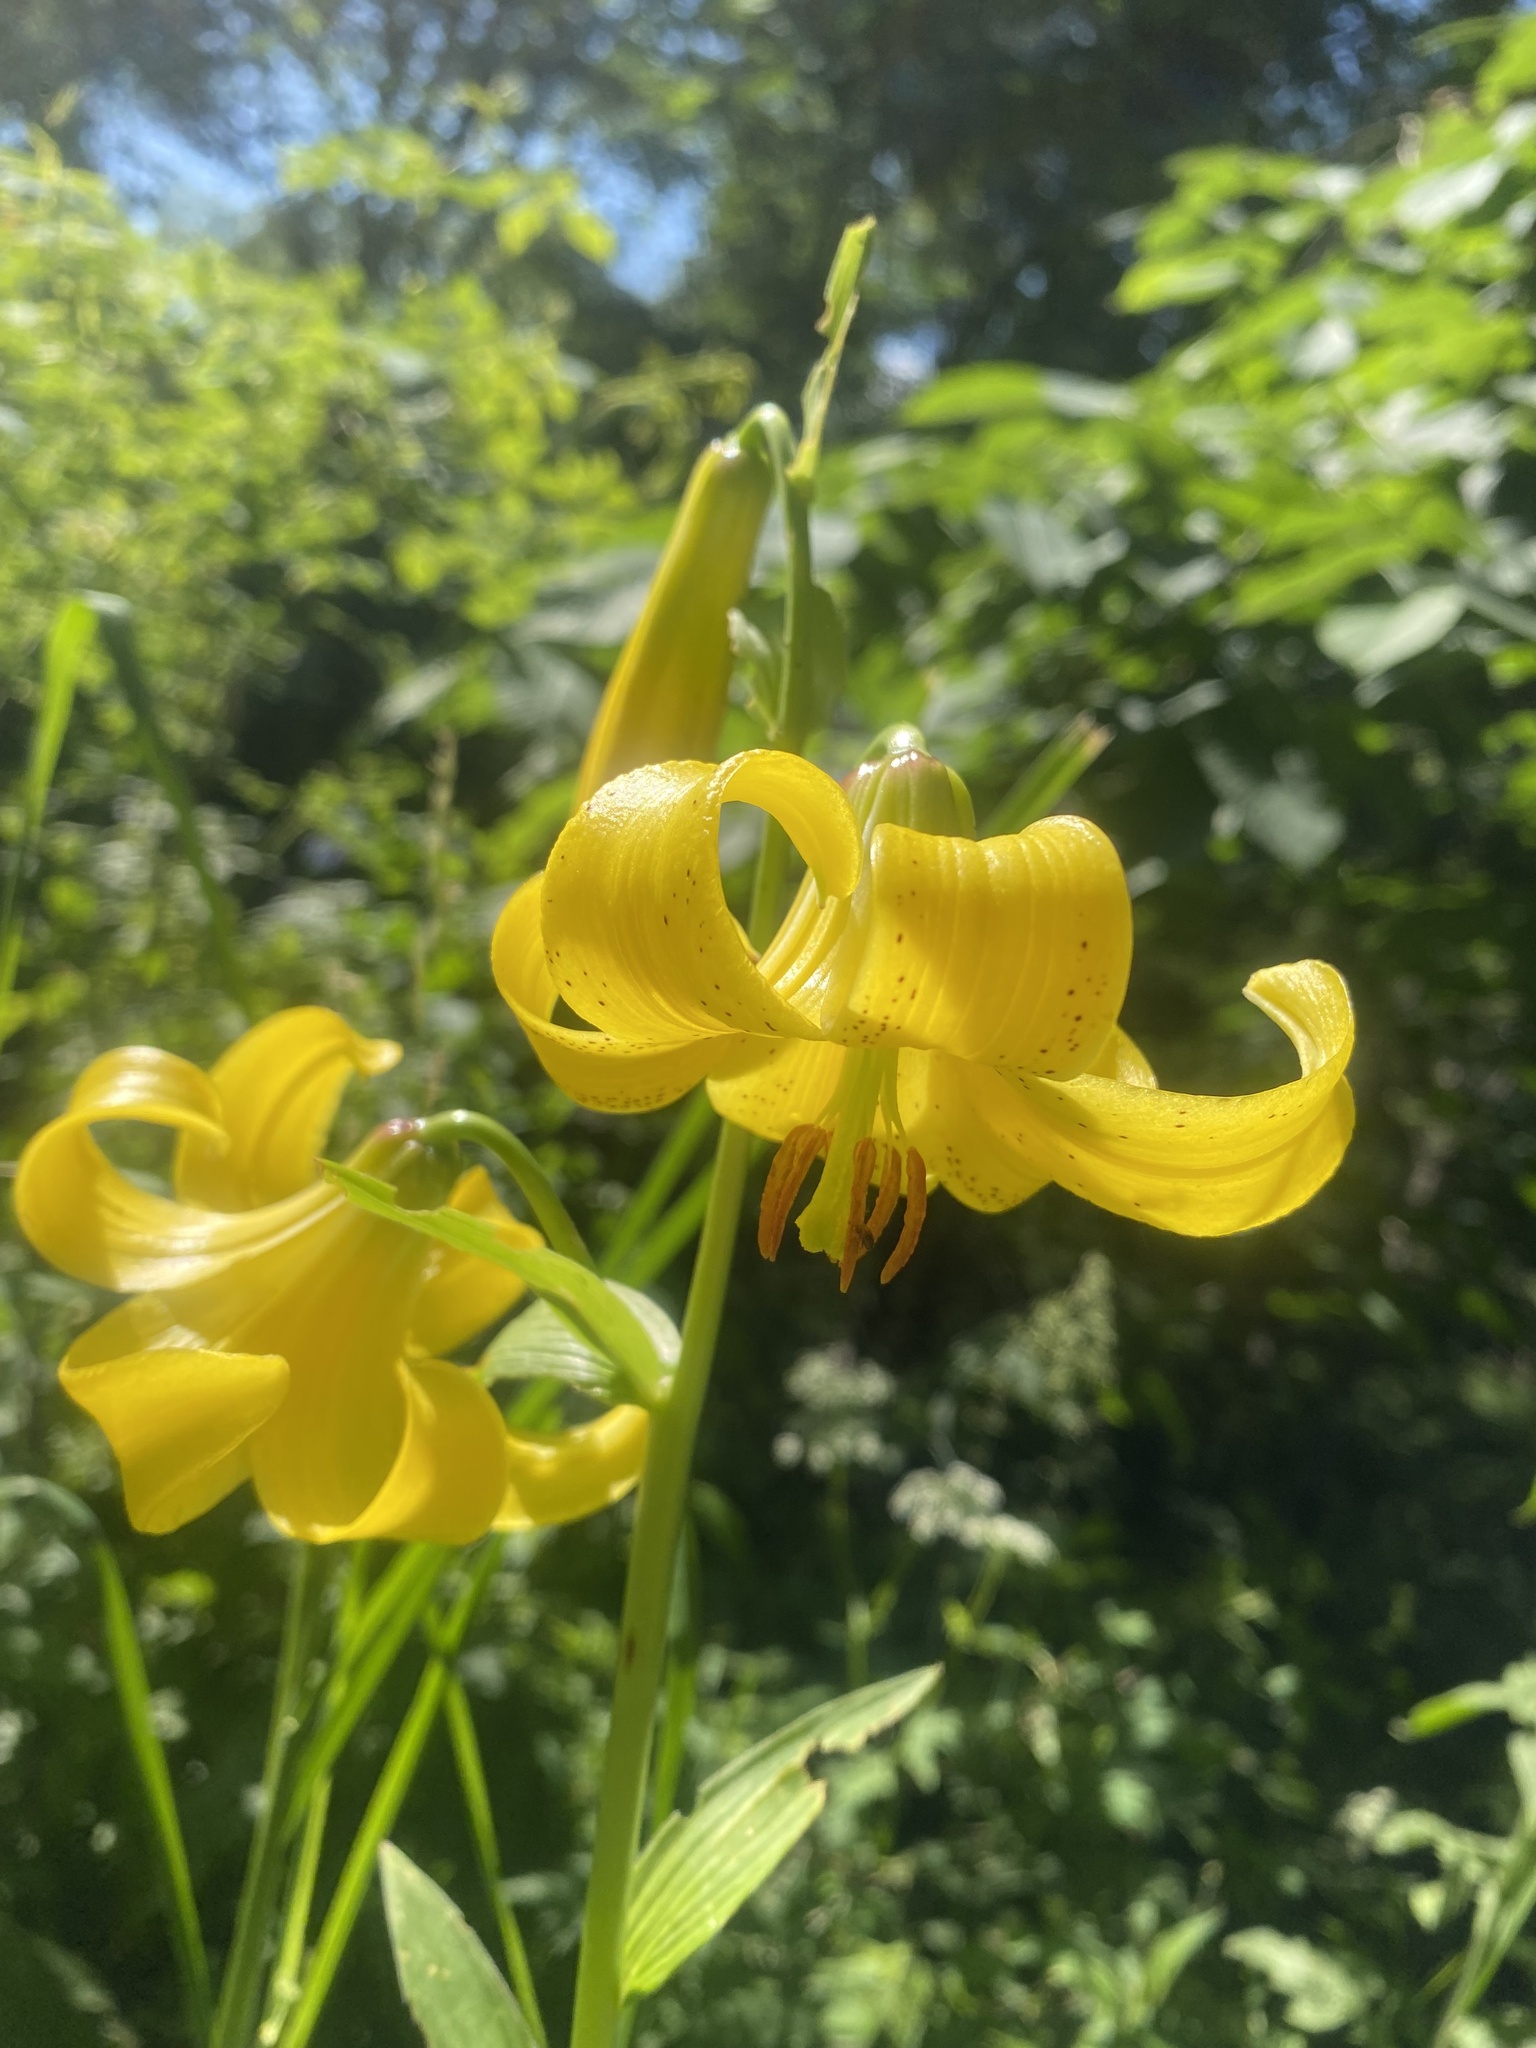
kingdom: Plantae
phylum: Tracheophyta
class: Liliopsida
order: Liliales
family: Liliaceae
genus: Lilium
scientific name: Lilium monadelphum
